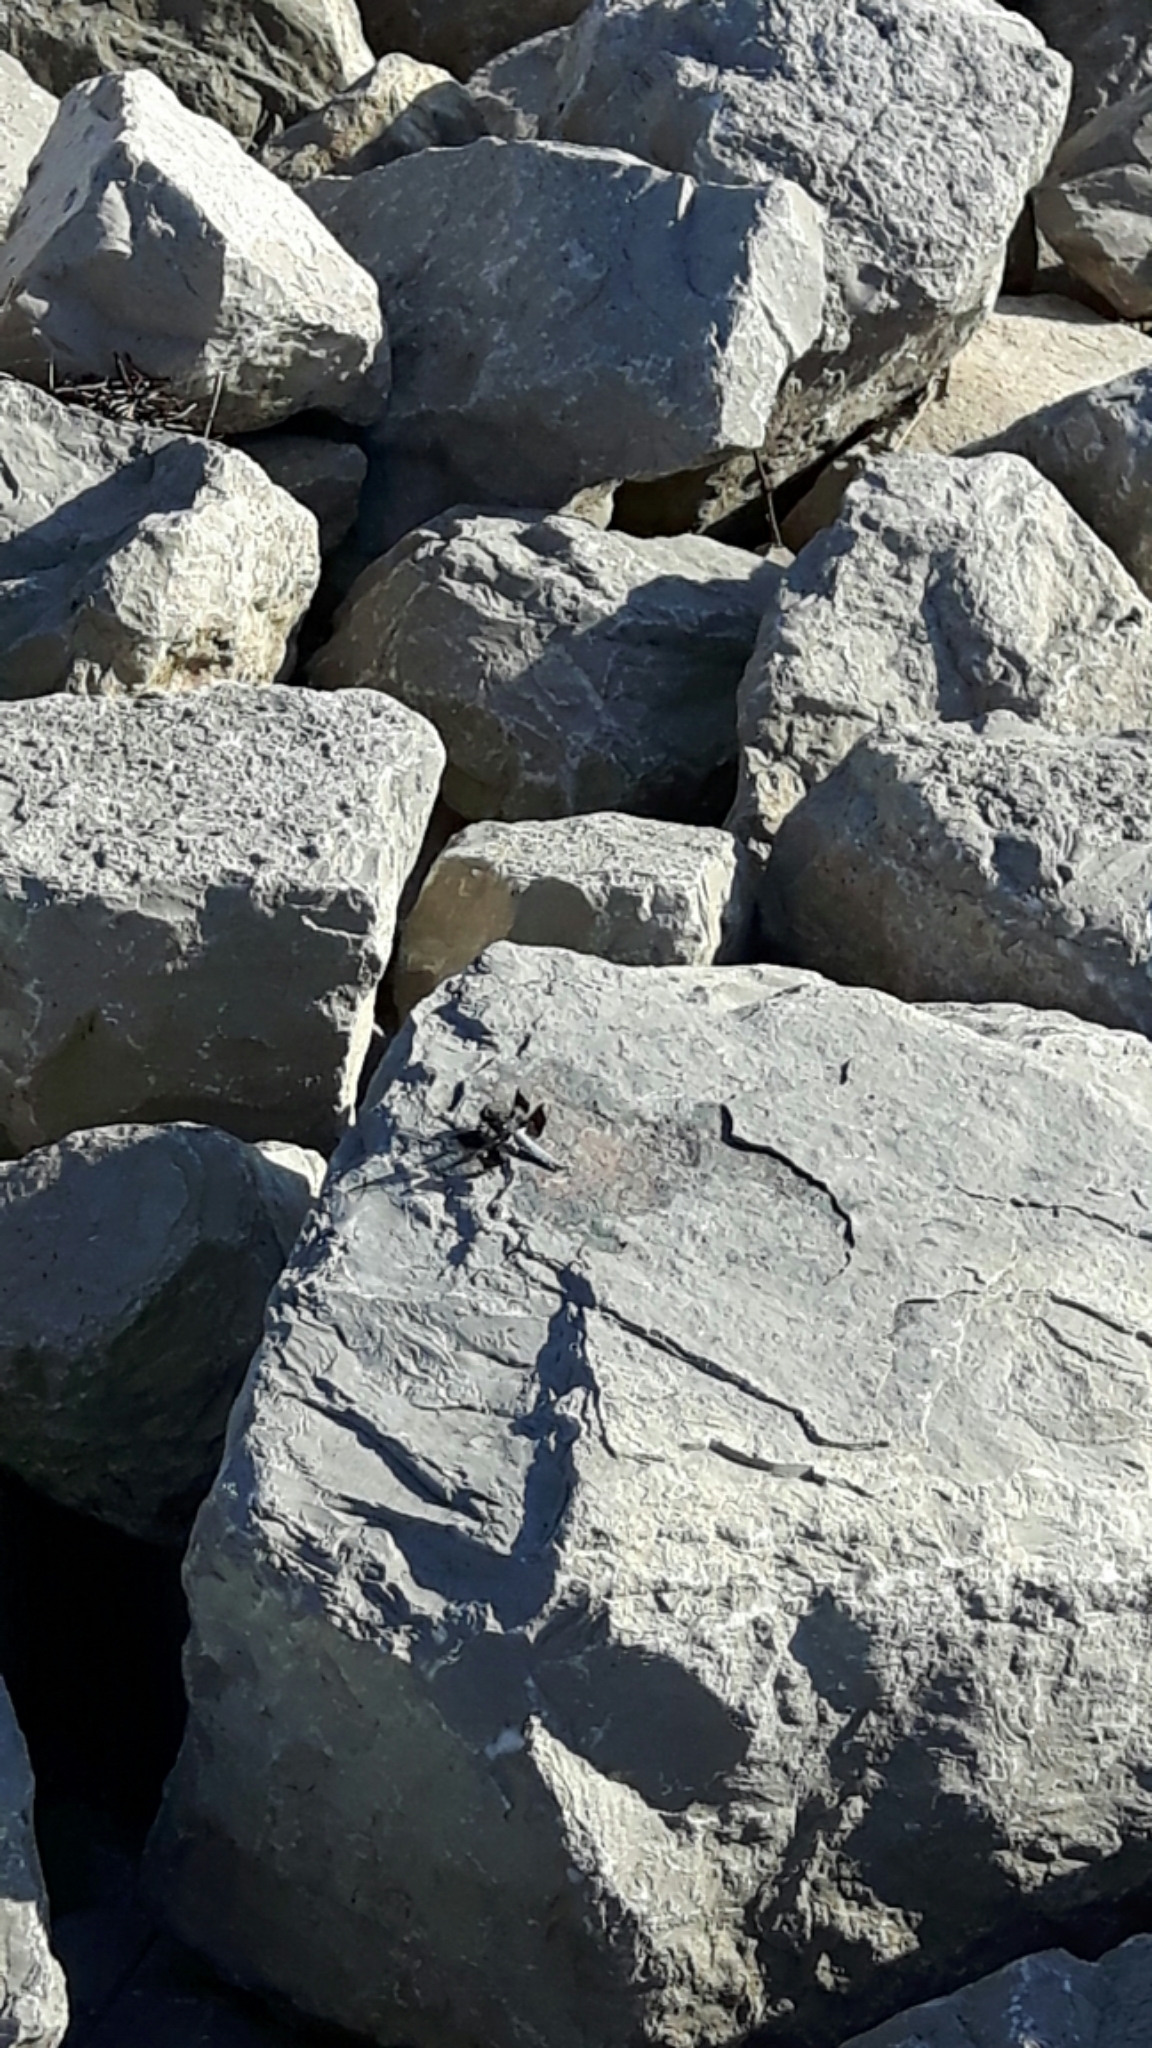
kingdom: Animalia
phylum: Arthropoda
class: Insecta
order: Odonata
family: Libellulidae
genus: Plathemis
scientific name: Plathemis lydia
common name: Common whitetail
